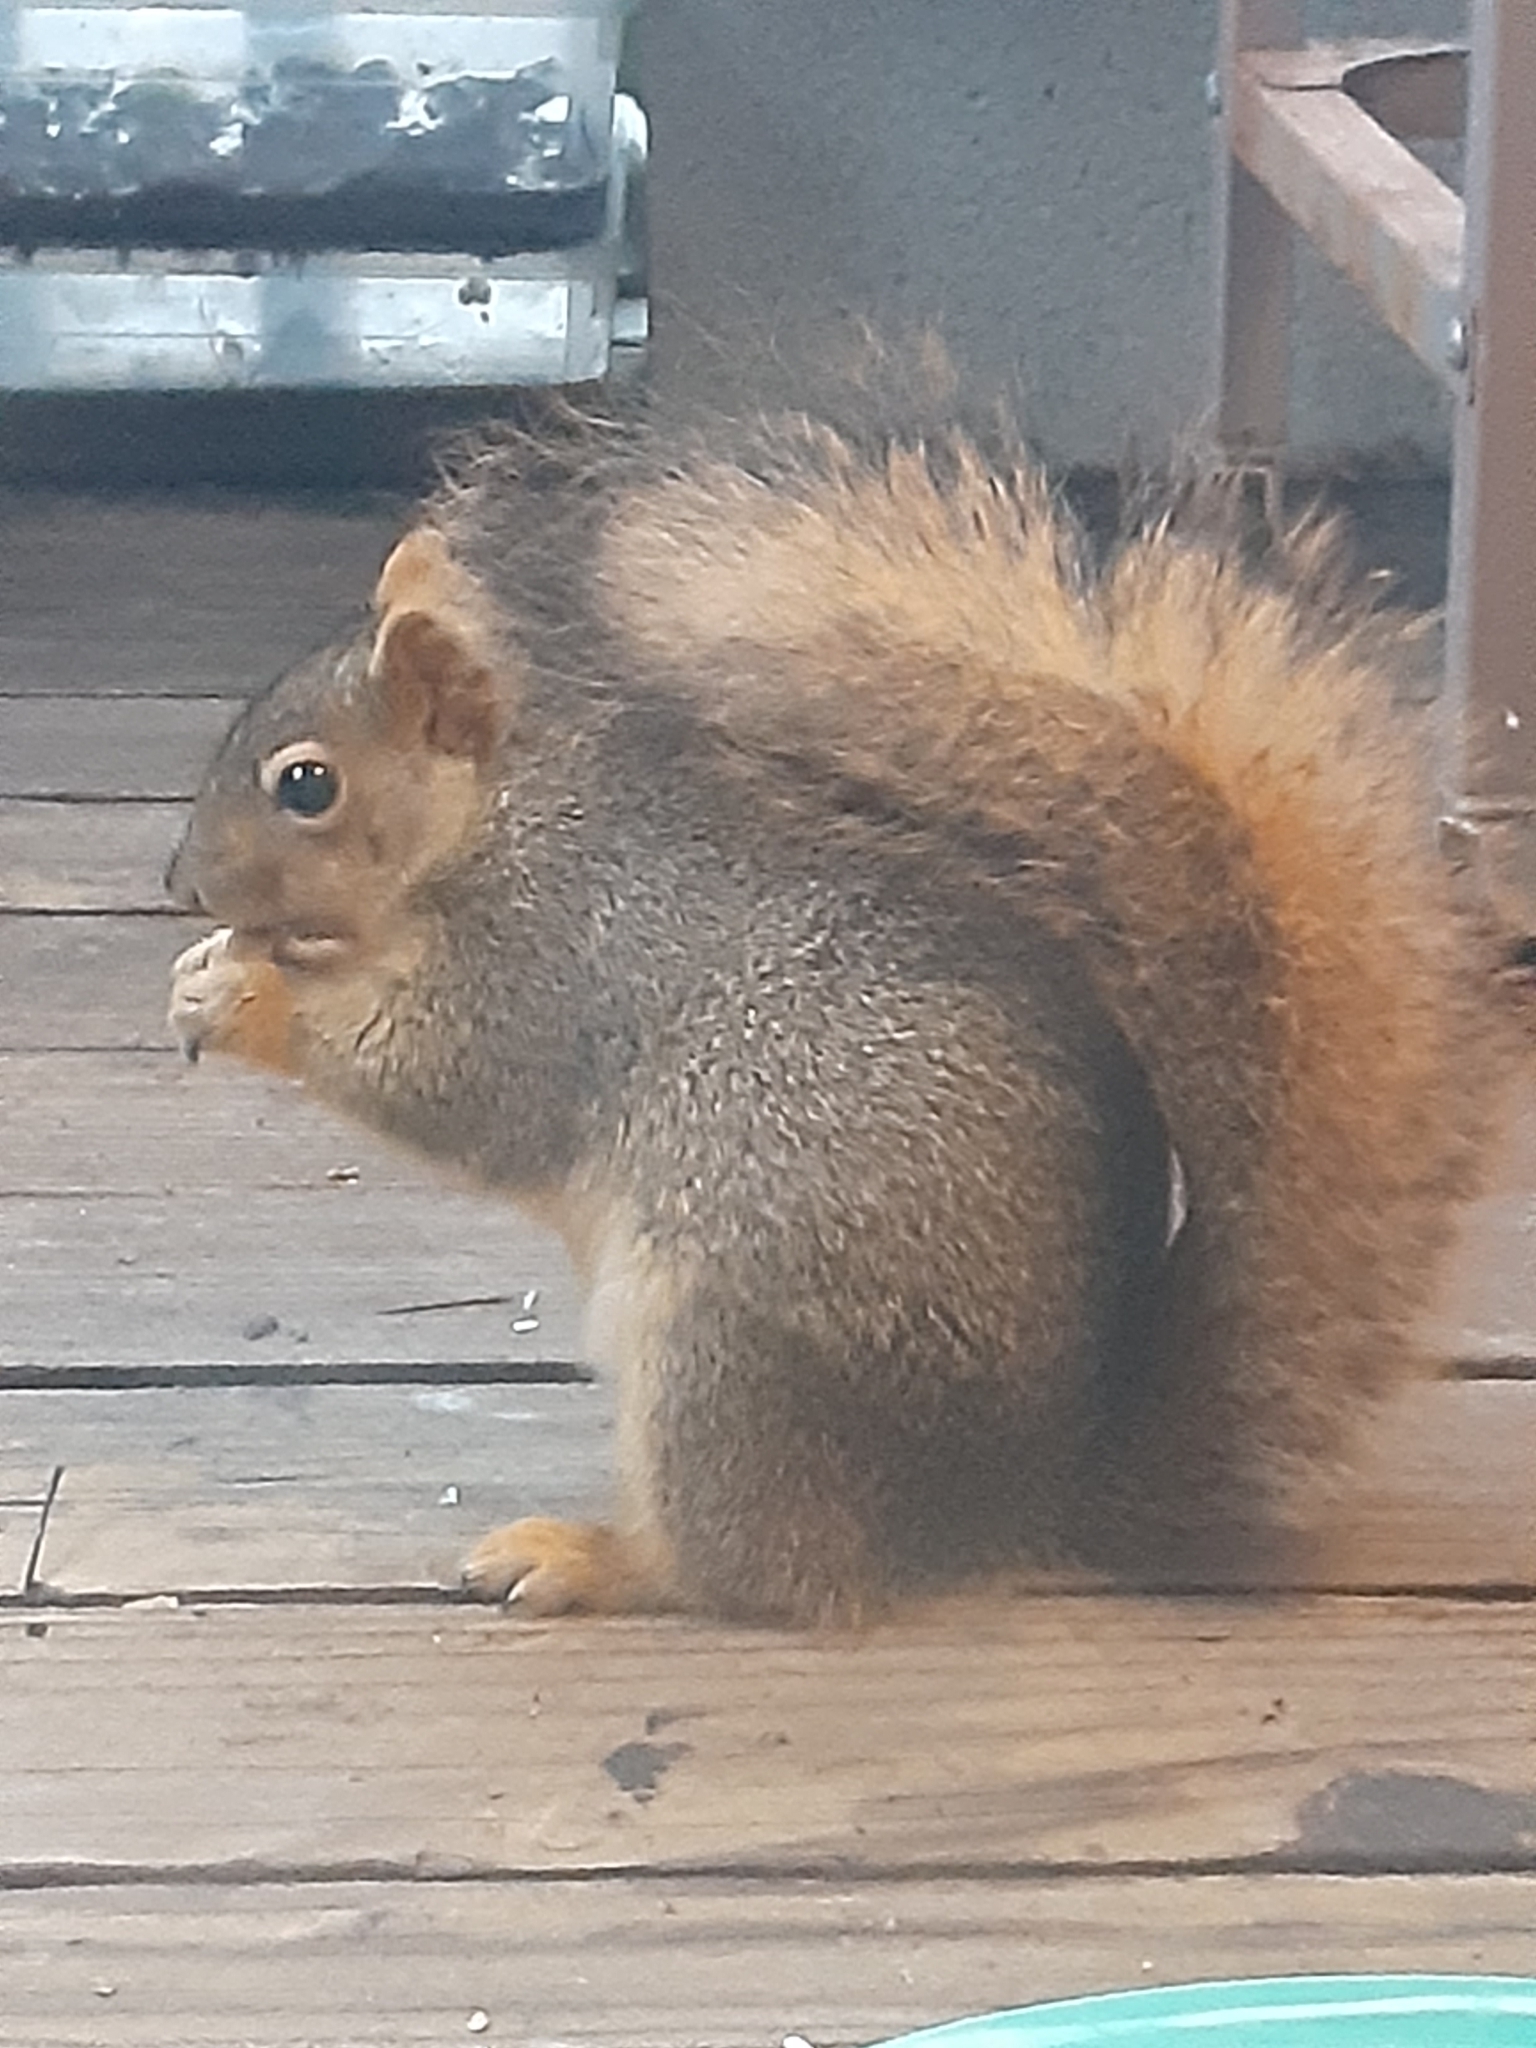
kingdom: Animalia
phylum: Chordata
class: Mammalia
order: Rodentia
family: Sciuridae
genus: Sciurus
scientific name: Sciurus niger
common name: Fox squirrel
